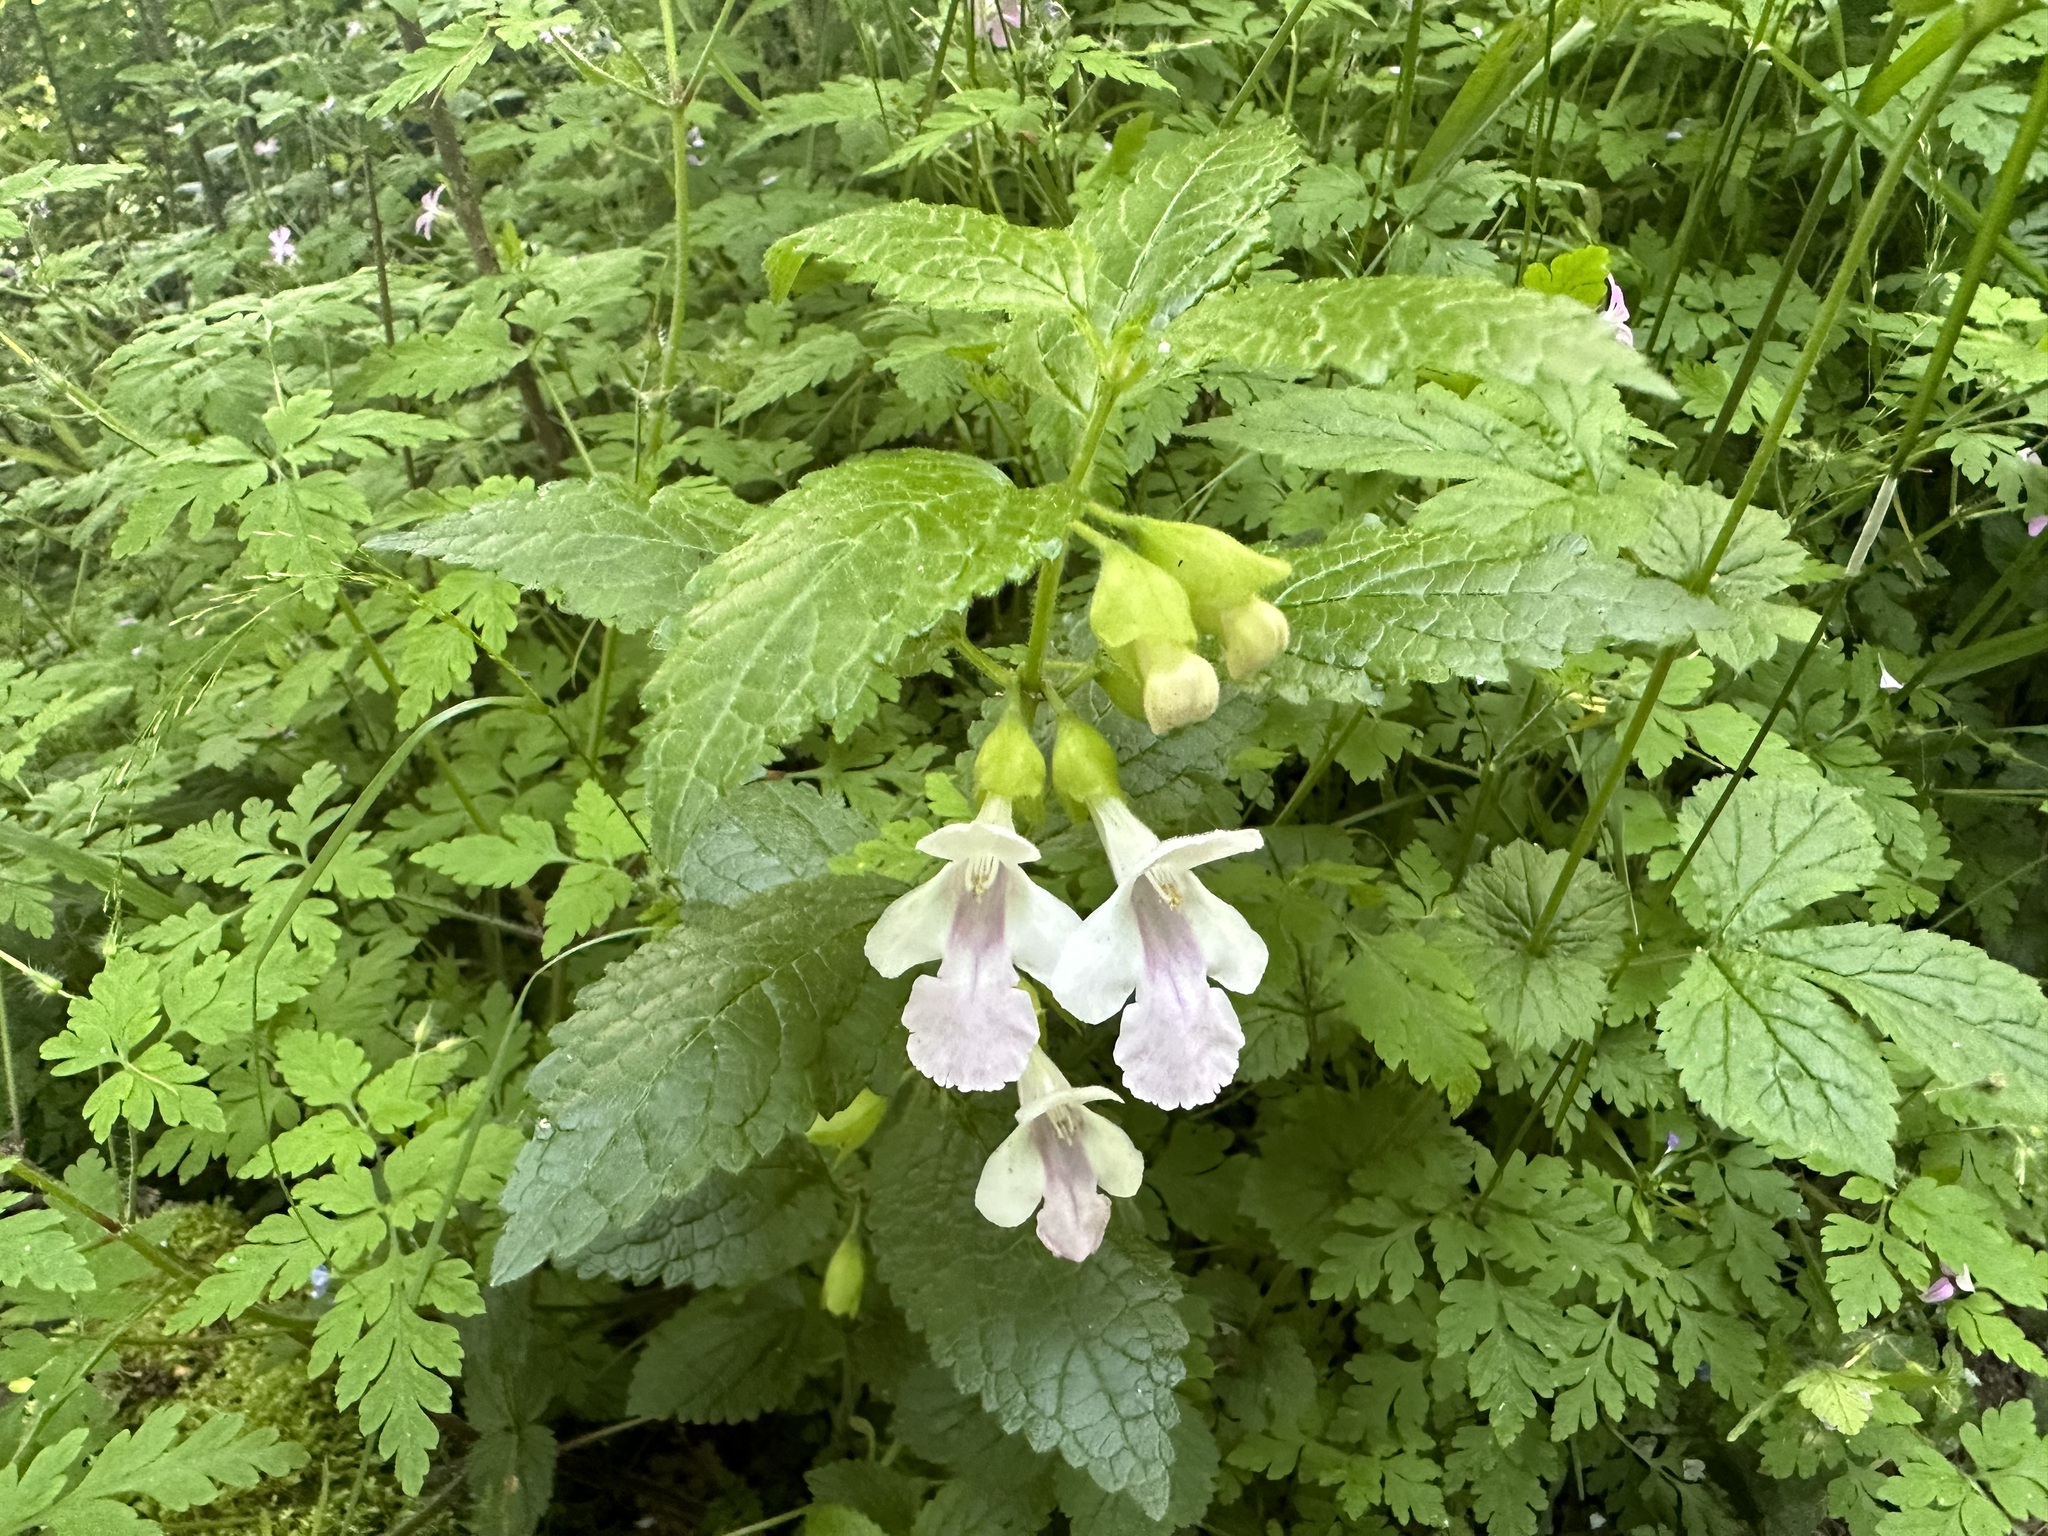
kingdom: Plantae
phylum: Tracheophyta
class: Magnoliopsida
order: Lamiales
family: Lamiaceae
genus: Melittis
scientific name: Melittis melissophyllum
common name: Bastard balm
